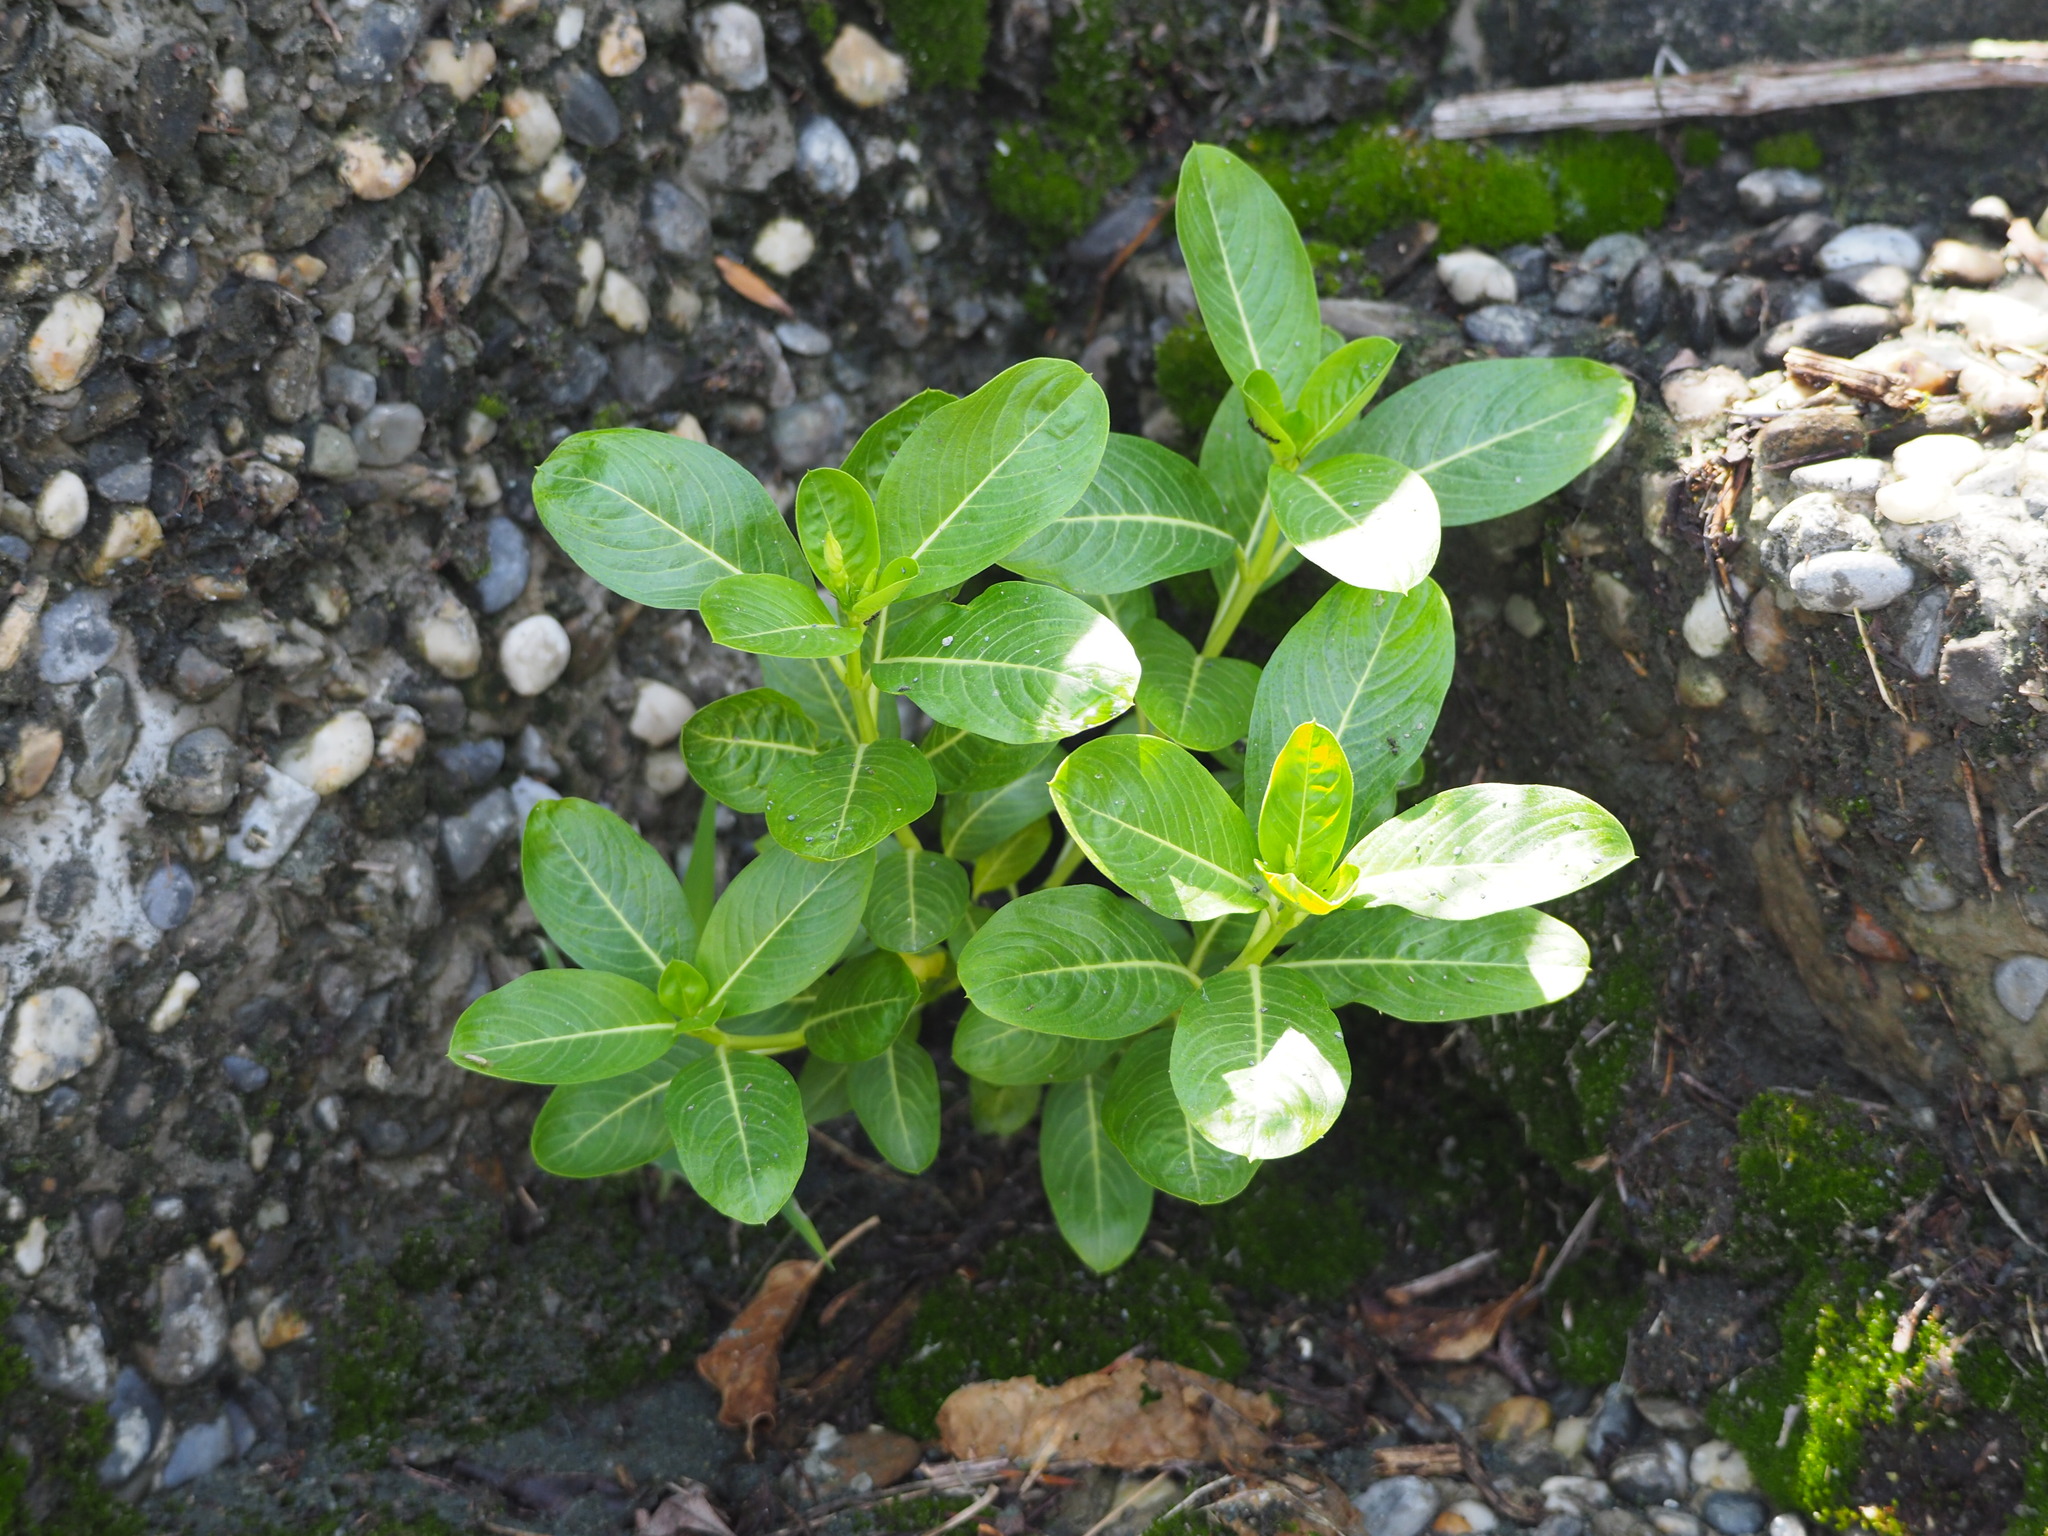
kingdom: Plantae
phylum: Tracheophyta
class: Magnoliopsida
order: Gentianales
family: Apocynaceae
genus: Catharanthus
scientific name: Catharanthus roseus
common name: Madagascar periwinkle
